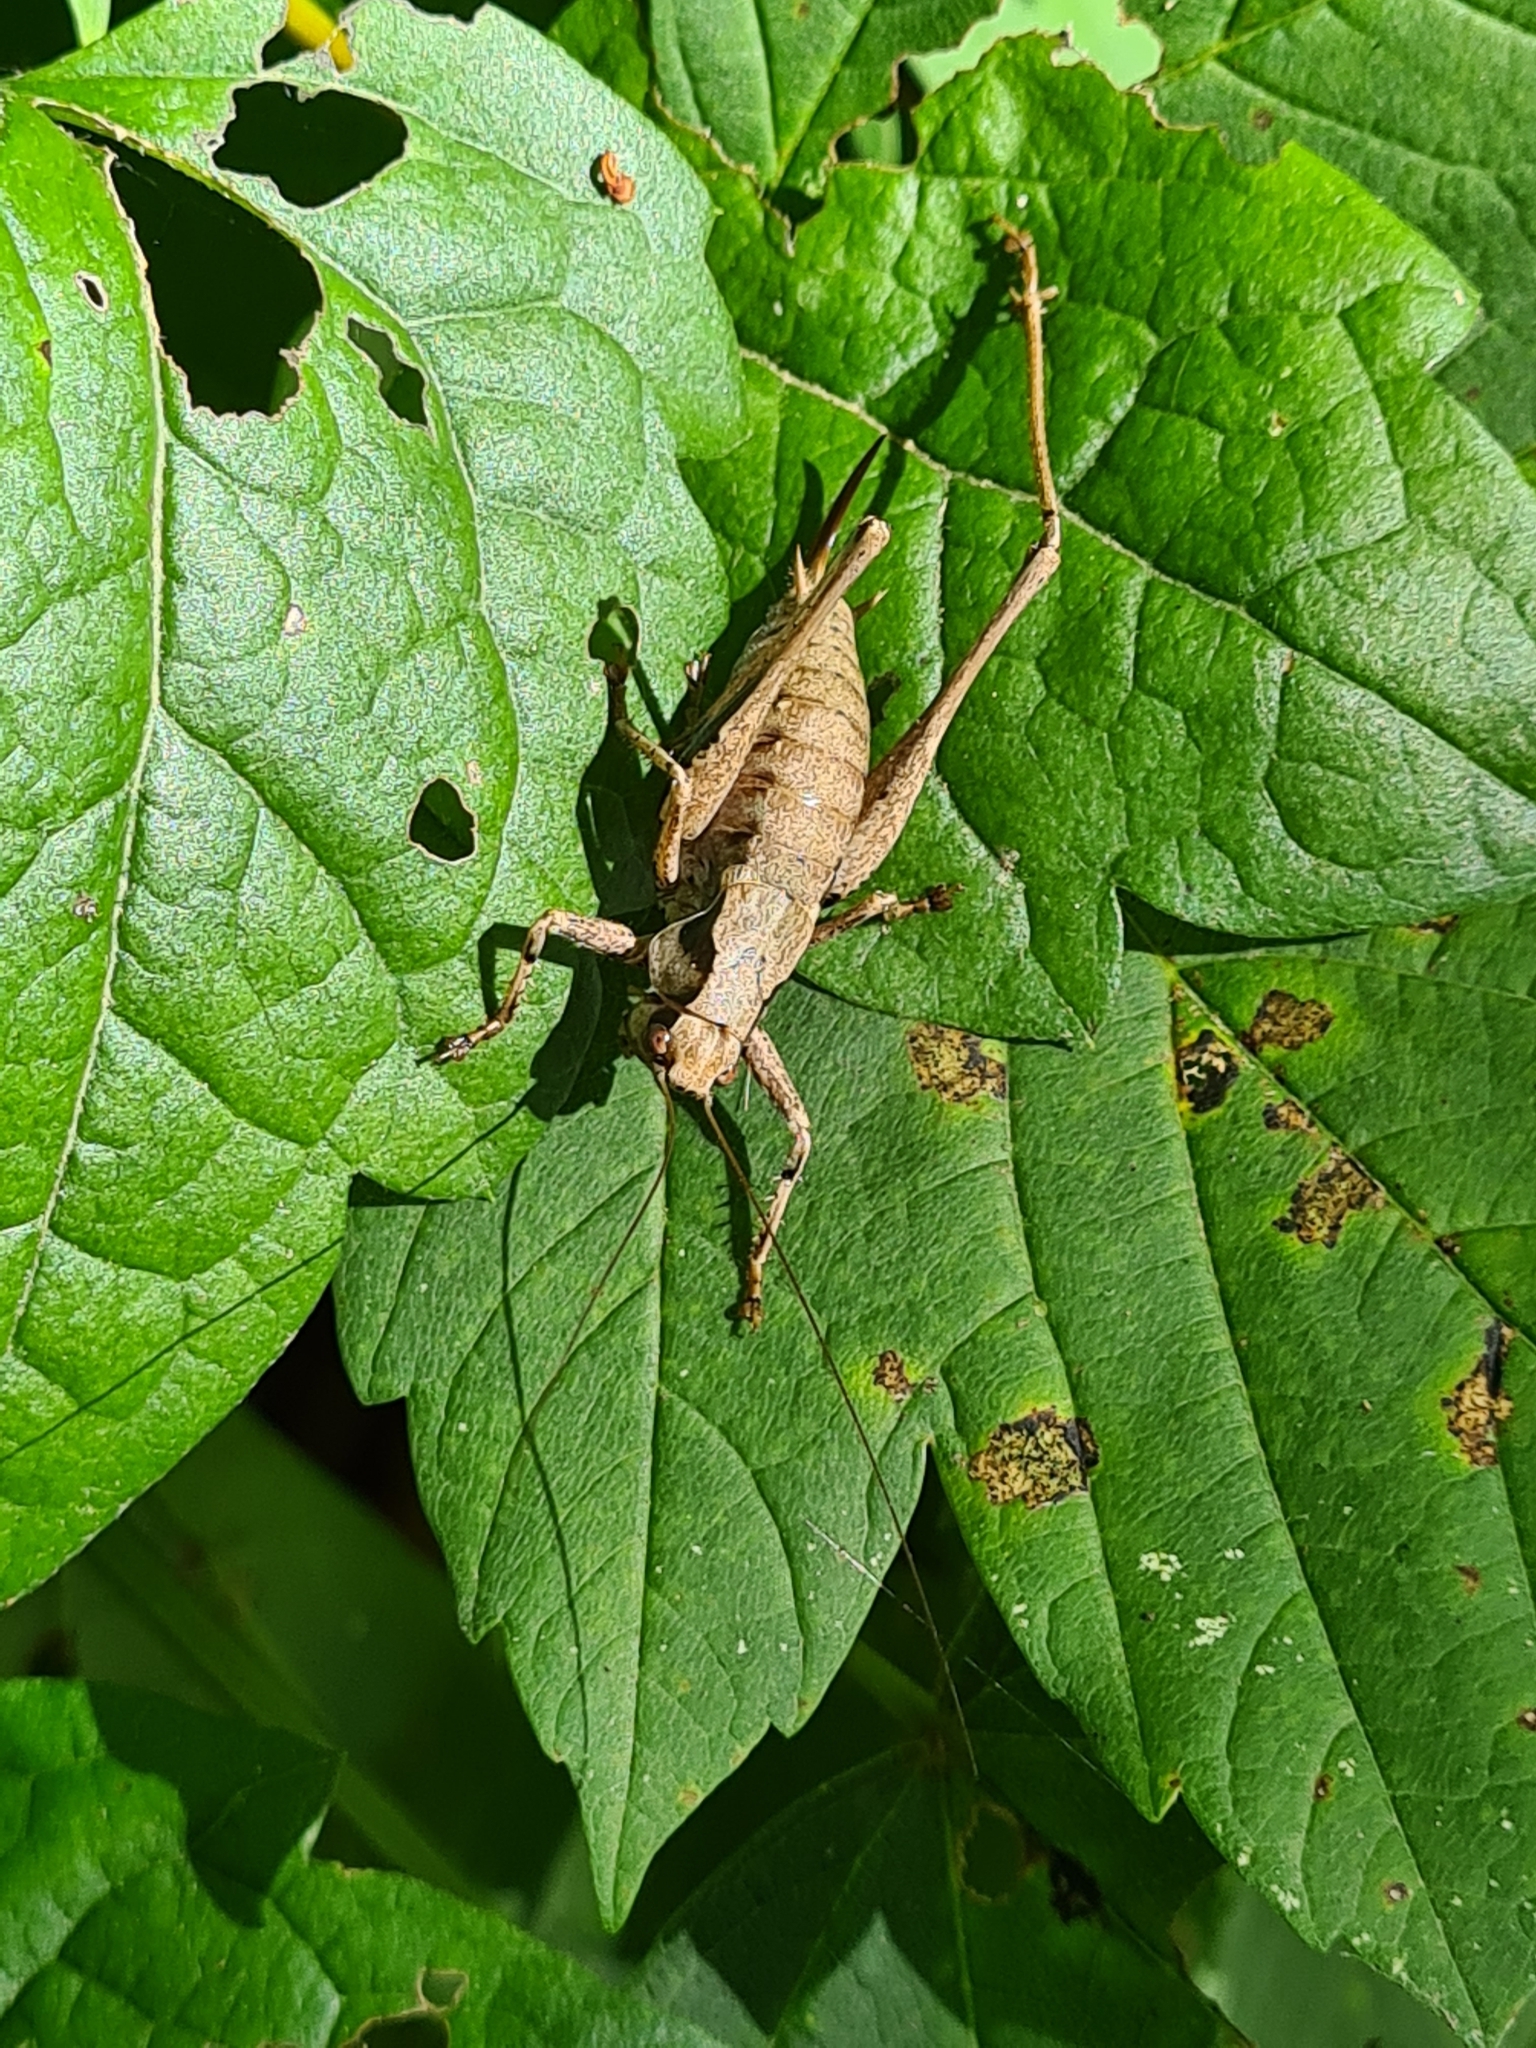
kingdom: Animalia
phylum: Arthropoda
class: Insecta
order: Orthoptera
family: Tettigoniidae
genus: Pholidoptera
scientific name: Pholidoptera griseoaptera
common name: Dark bush-cricket
